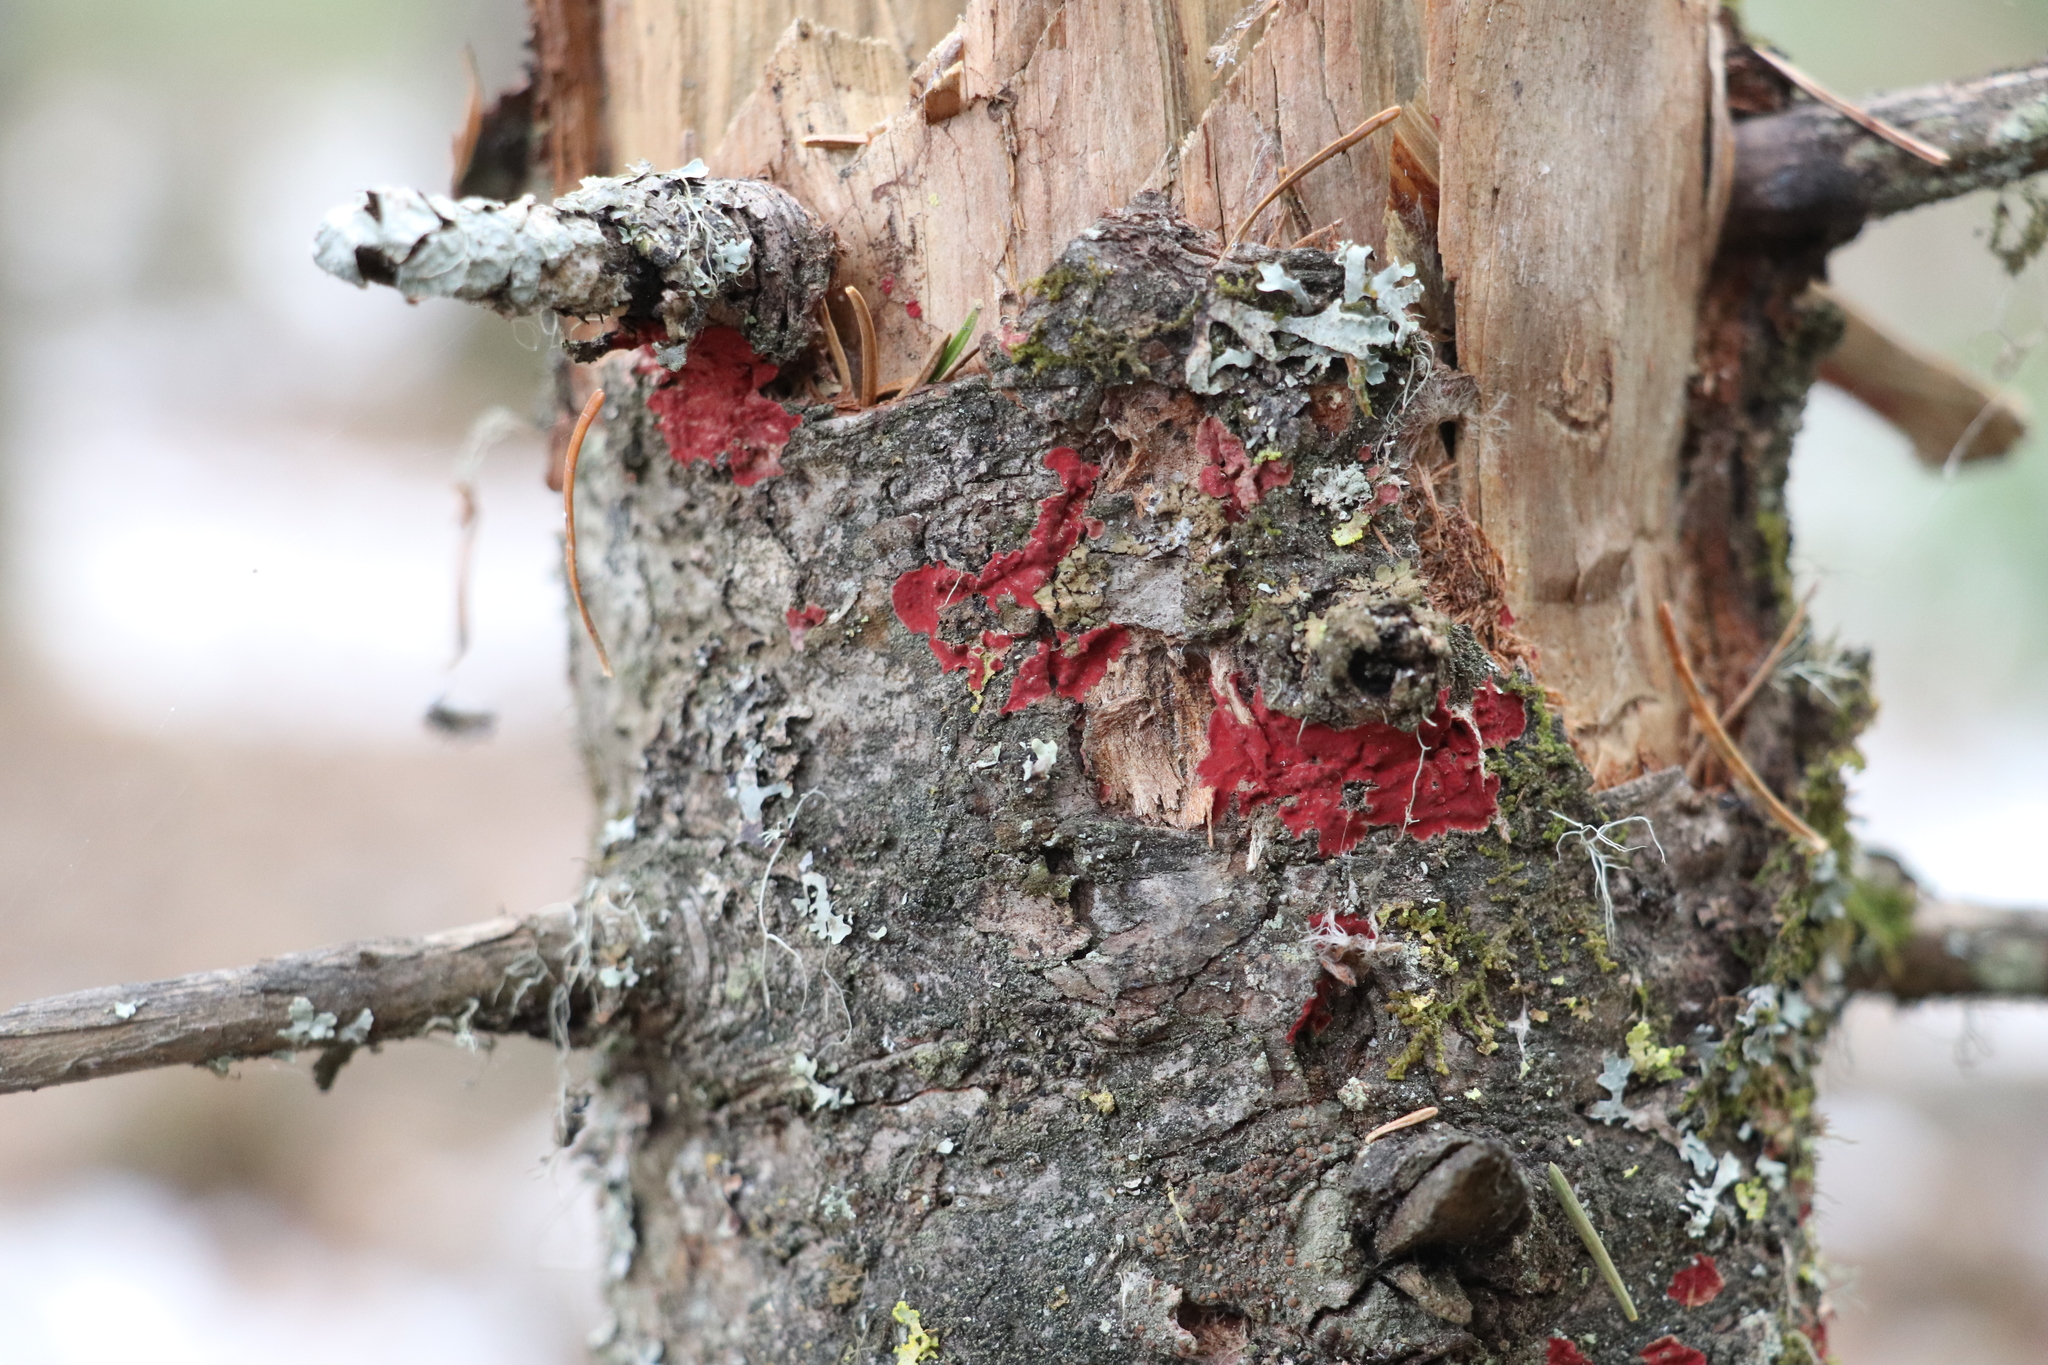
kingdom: Fungi
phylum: Basidiomycota
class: Agaricomycetes
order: Hymenochaetales
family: Hymenochaetaceae
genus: Hymenochaete
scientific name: Hymenochaete cruenta
